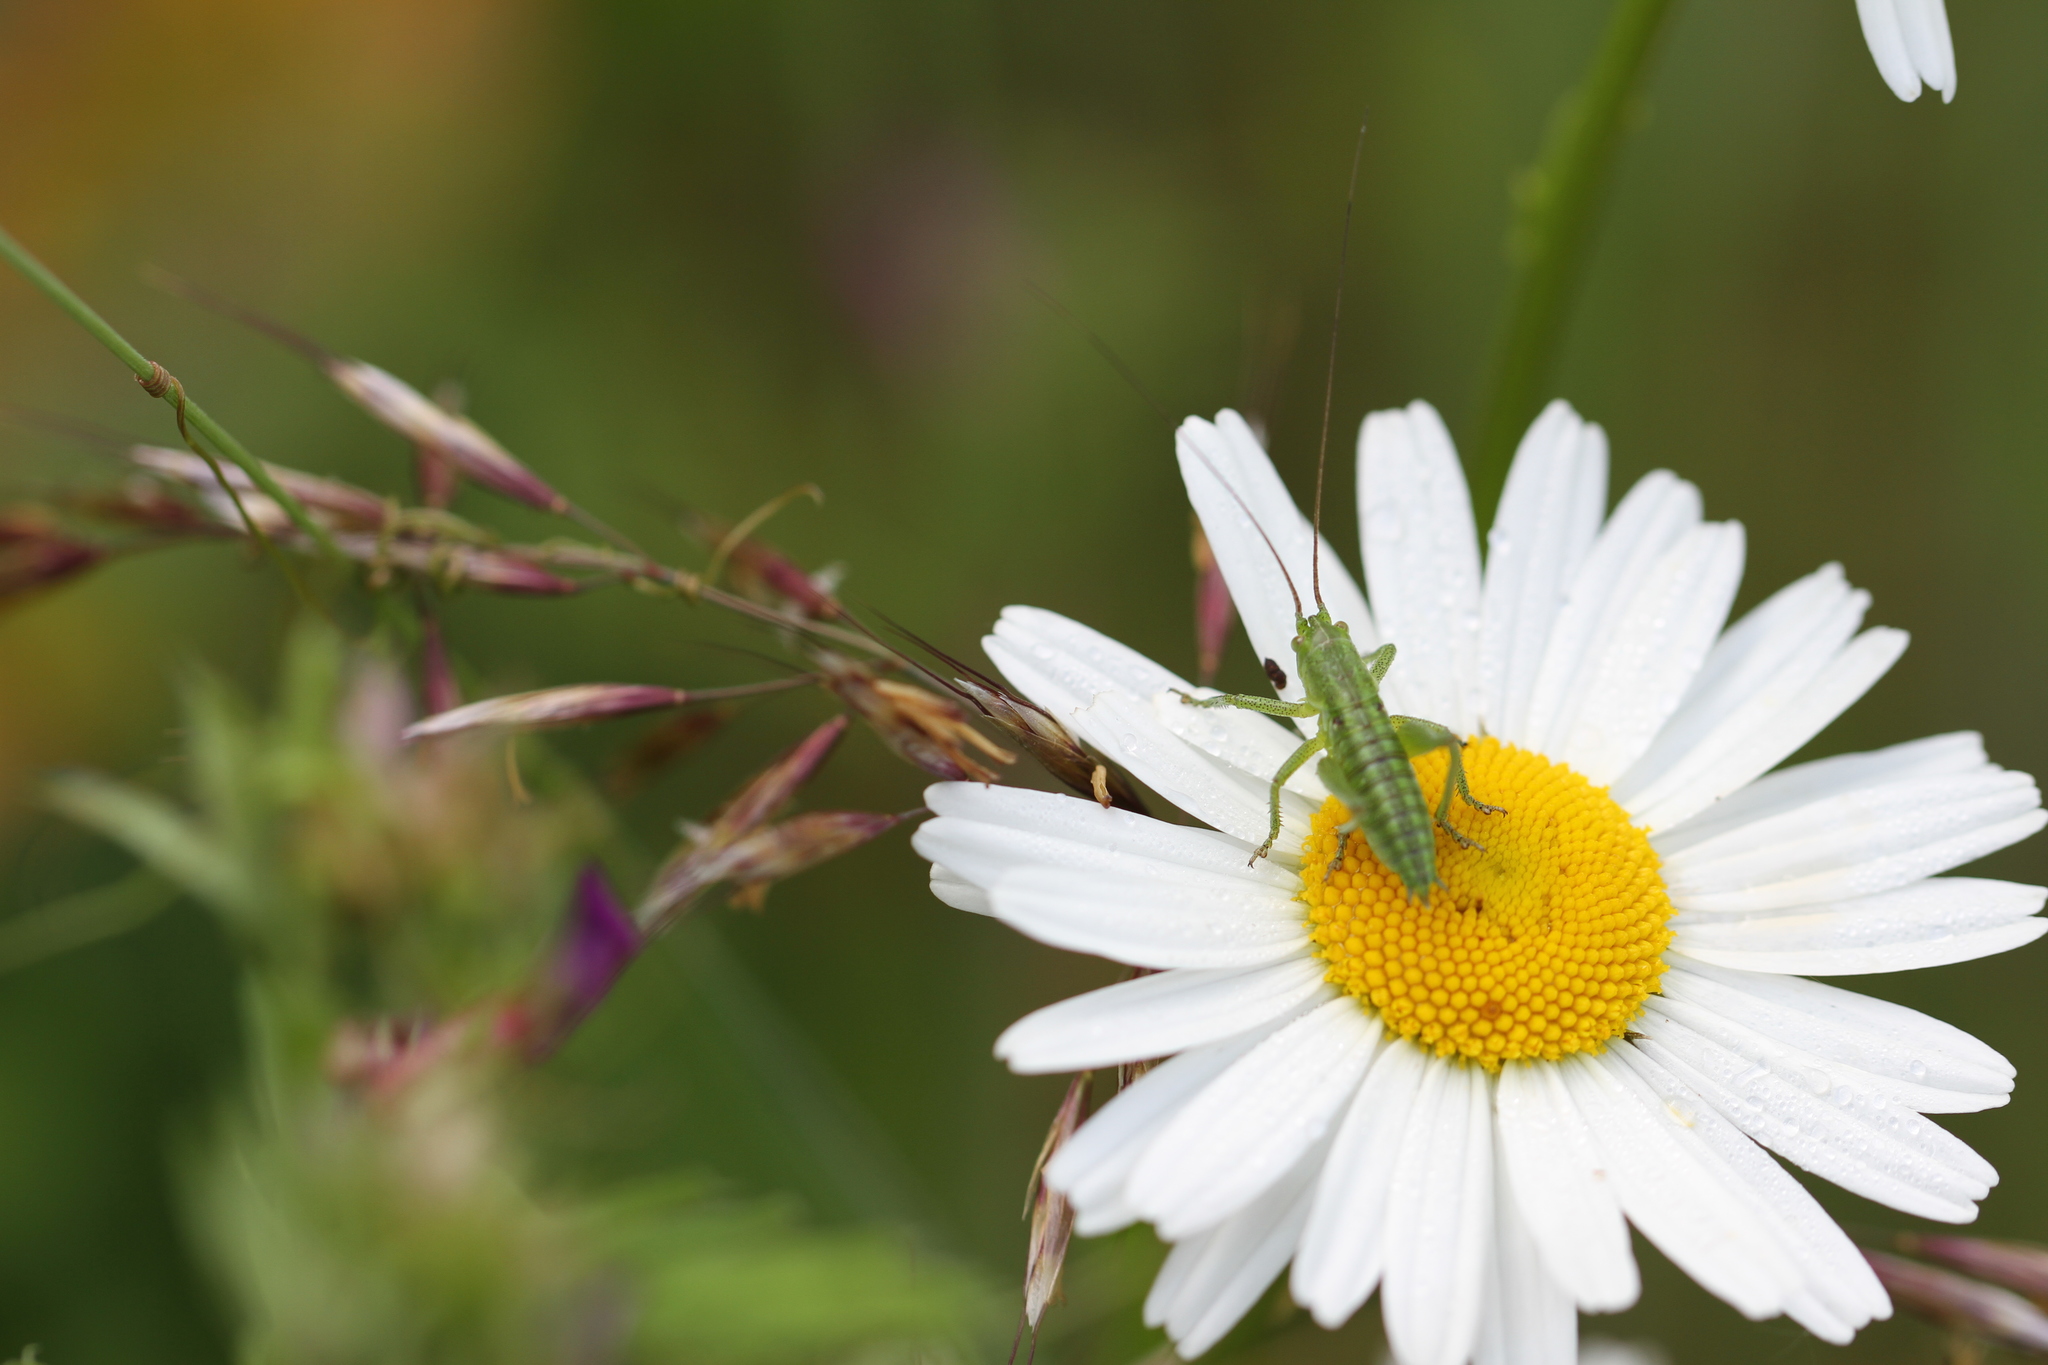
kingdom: Animalia
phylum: Arthropoda
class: Insecta
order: Orthoptera
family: Tettigoniidae
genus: Tettigonia
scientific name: Tettigonia viridissima
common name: Great green bush-cricket
